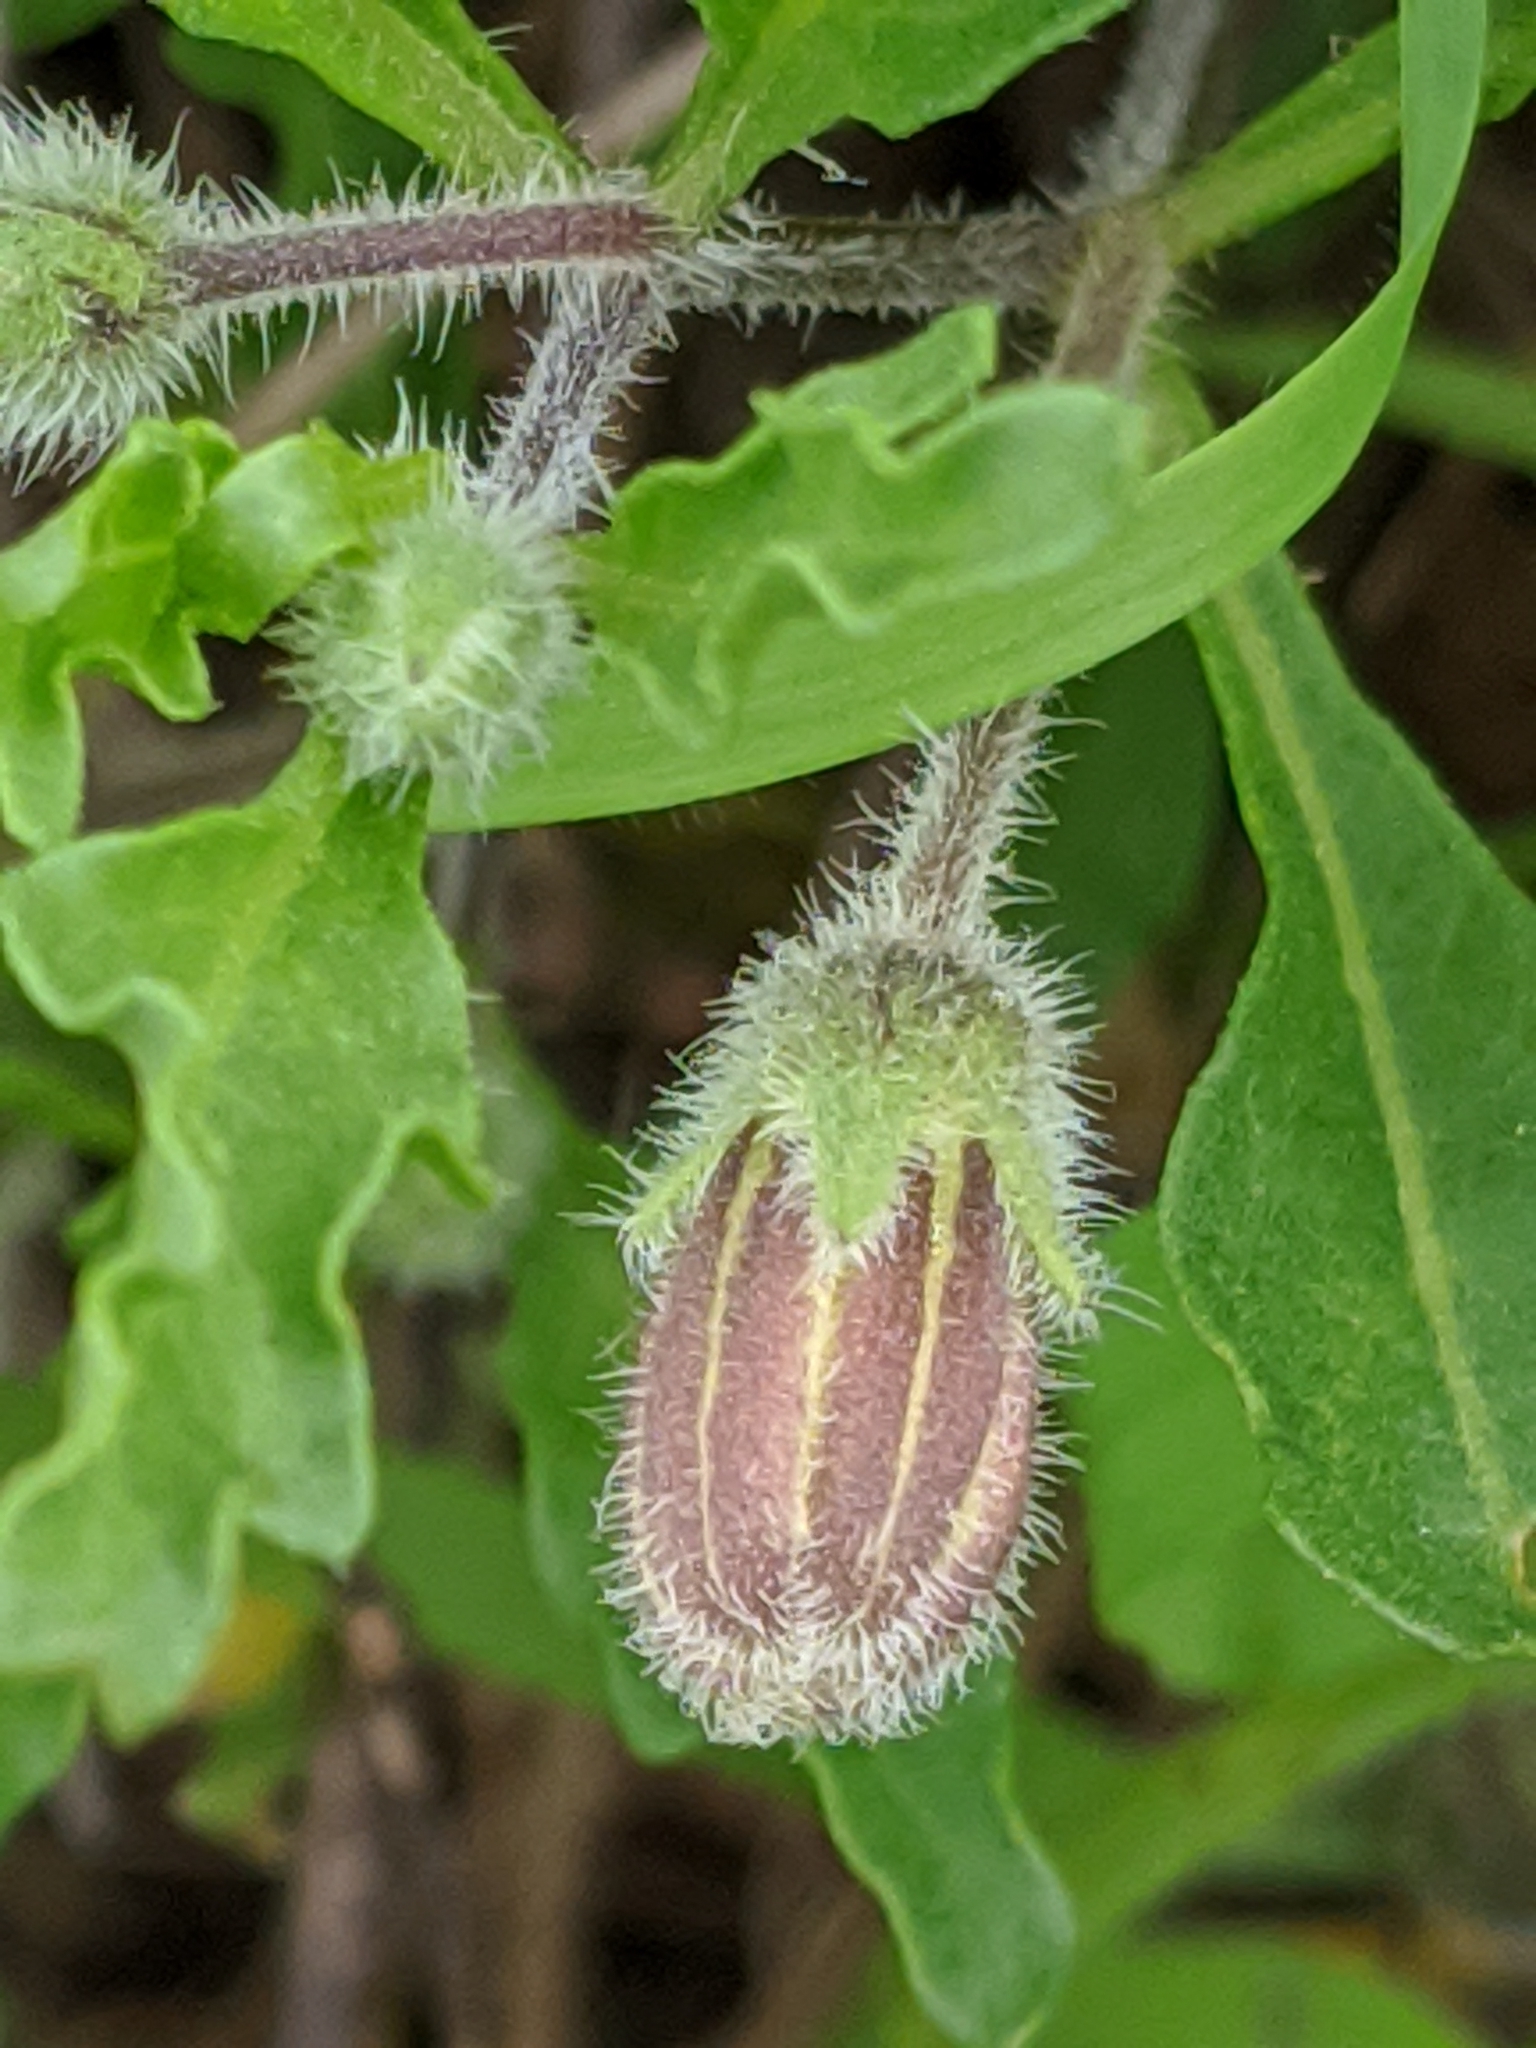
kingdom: Plantae
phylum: Tracheophyta
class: Magnoliopsida
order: Solanales
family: Solanaceae
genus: Chamaesaracha
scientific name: Chamaesaracha edwardsiana
